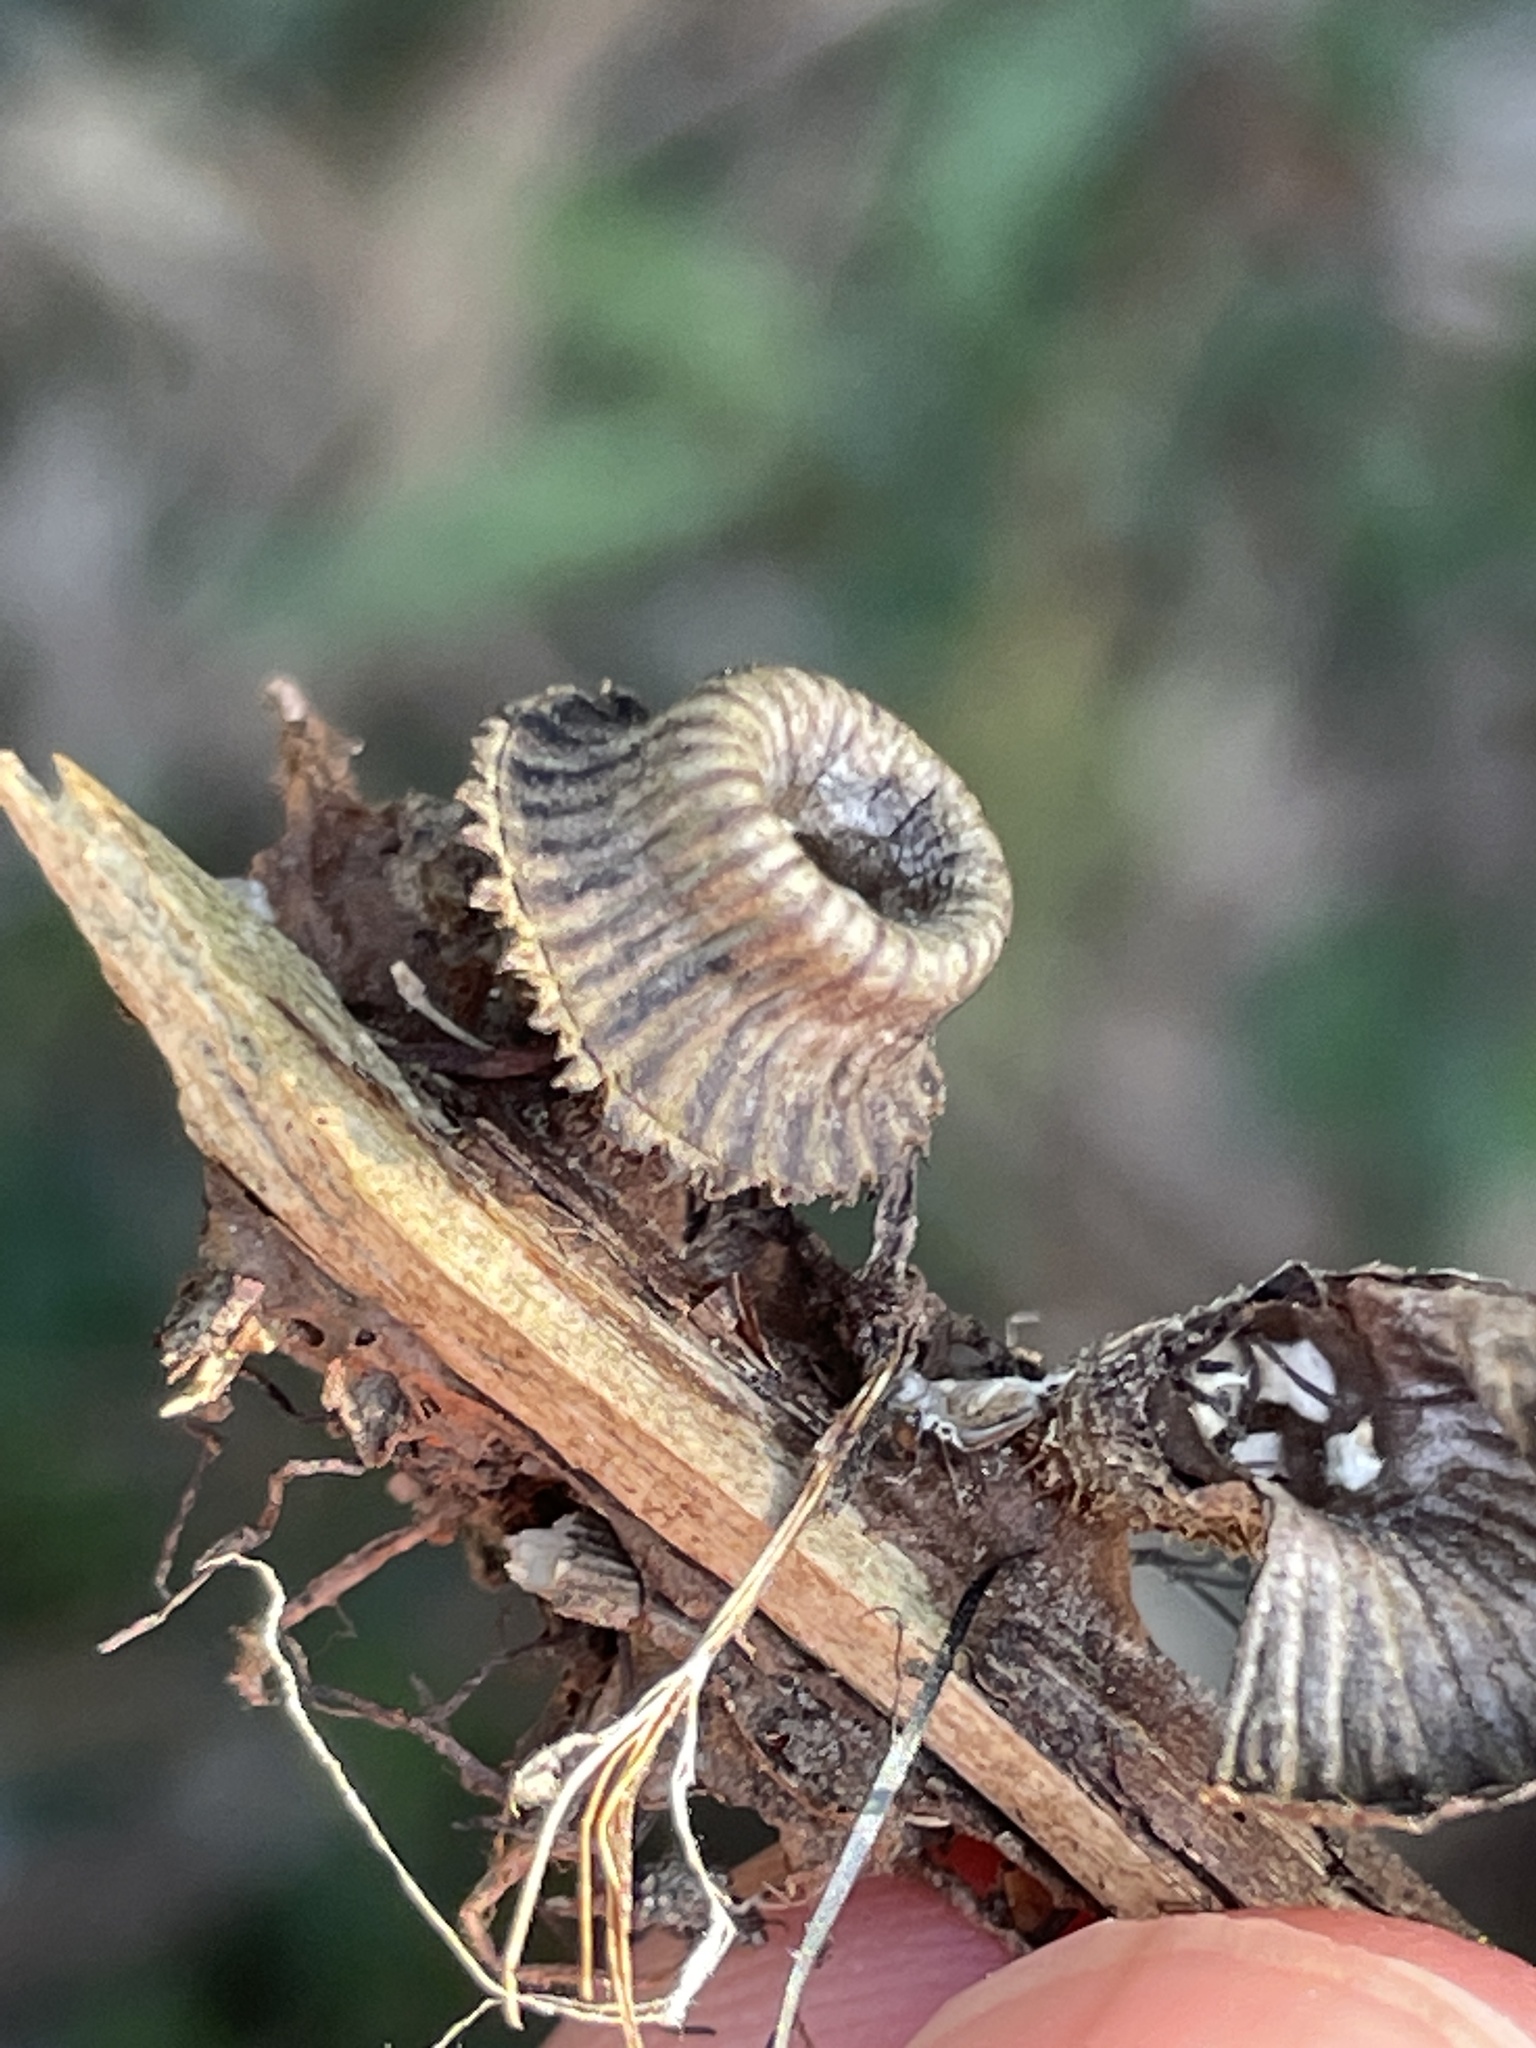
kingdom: Fungi
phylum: Basidiomycota
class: Agaricomycetes
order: Agaricales
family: Agaricaceae
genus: Cyathus
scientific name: Cyathus striatus
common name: Fluted bird's nest
